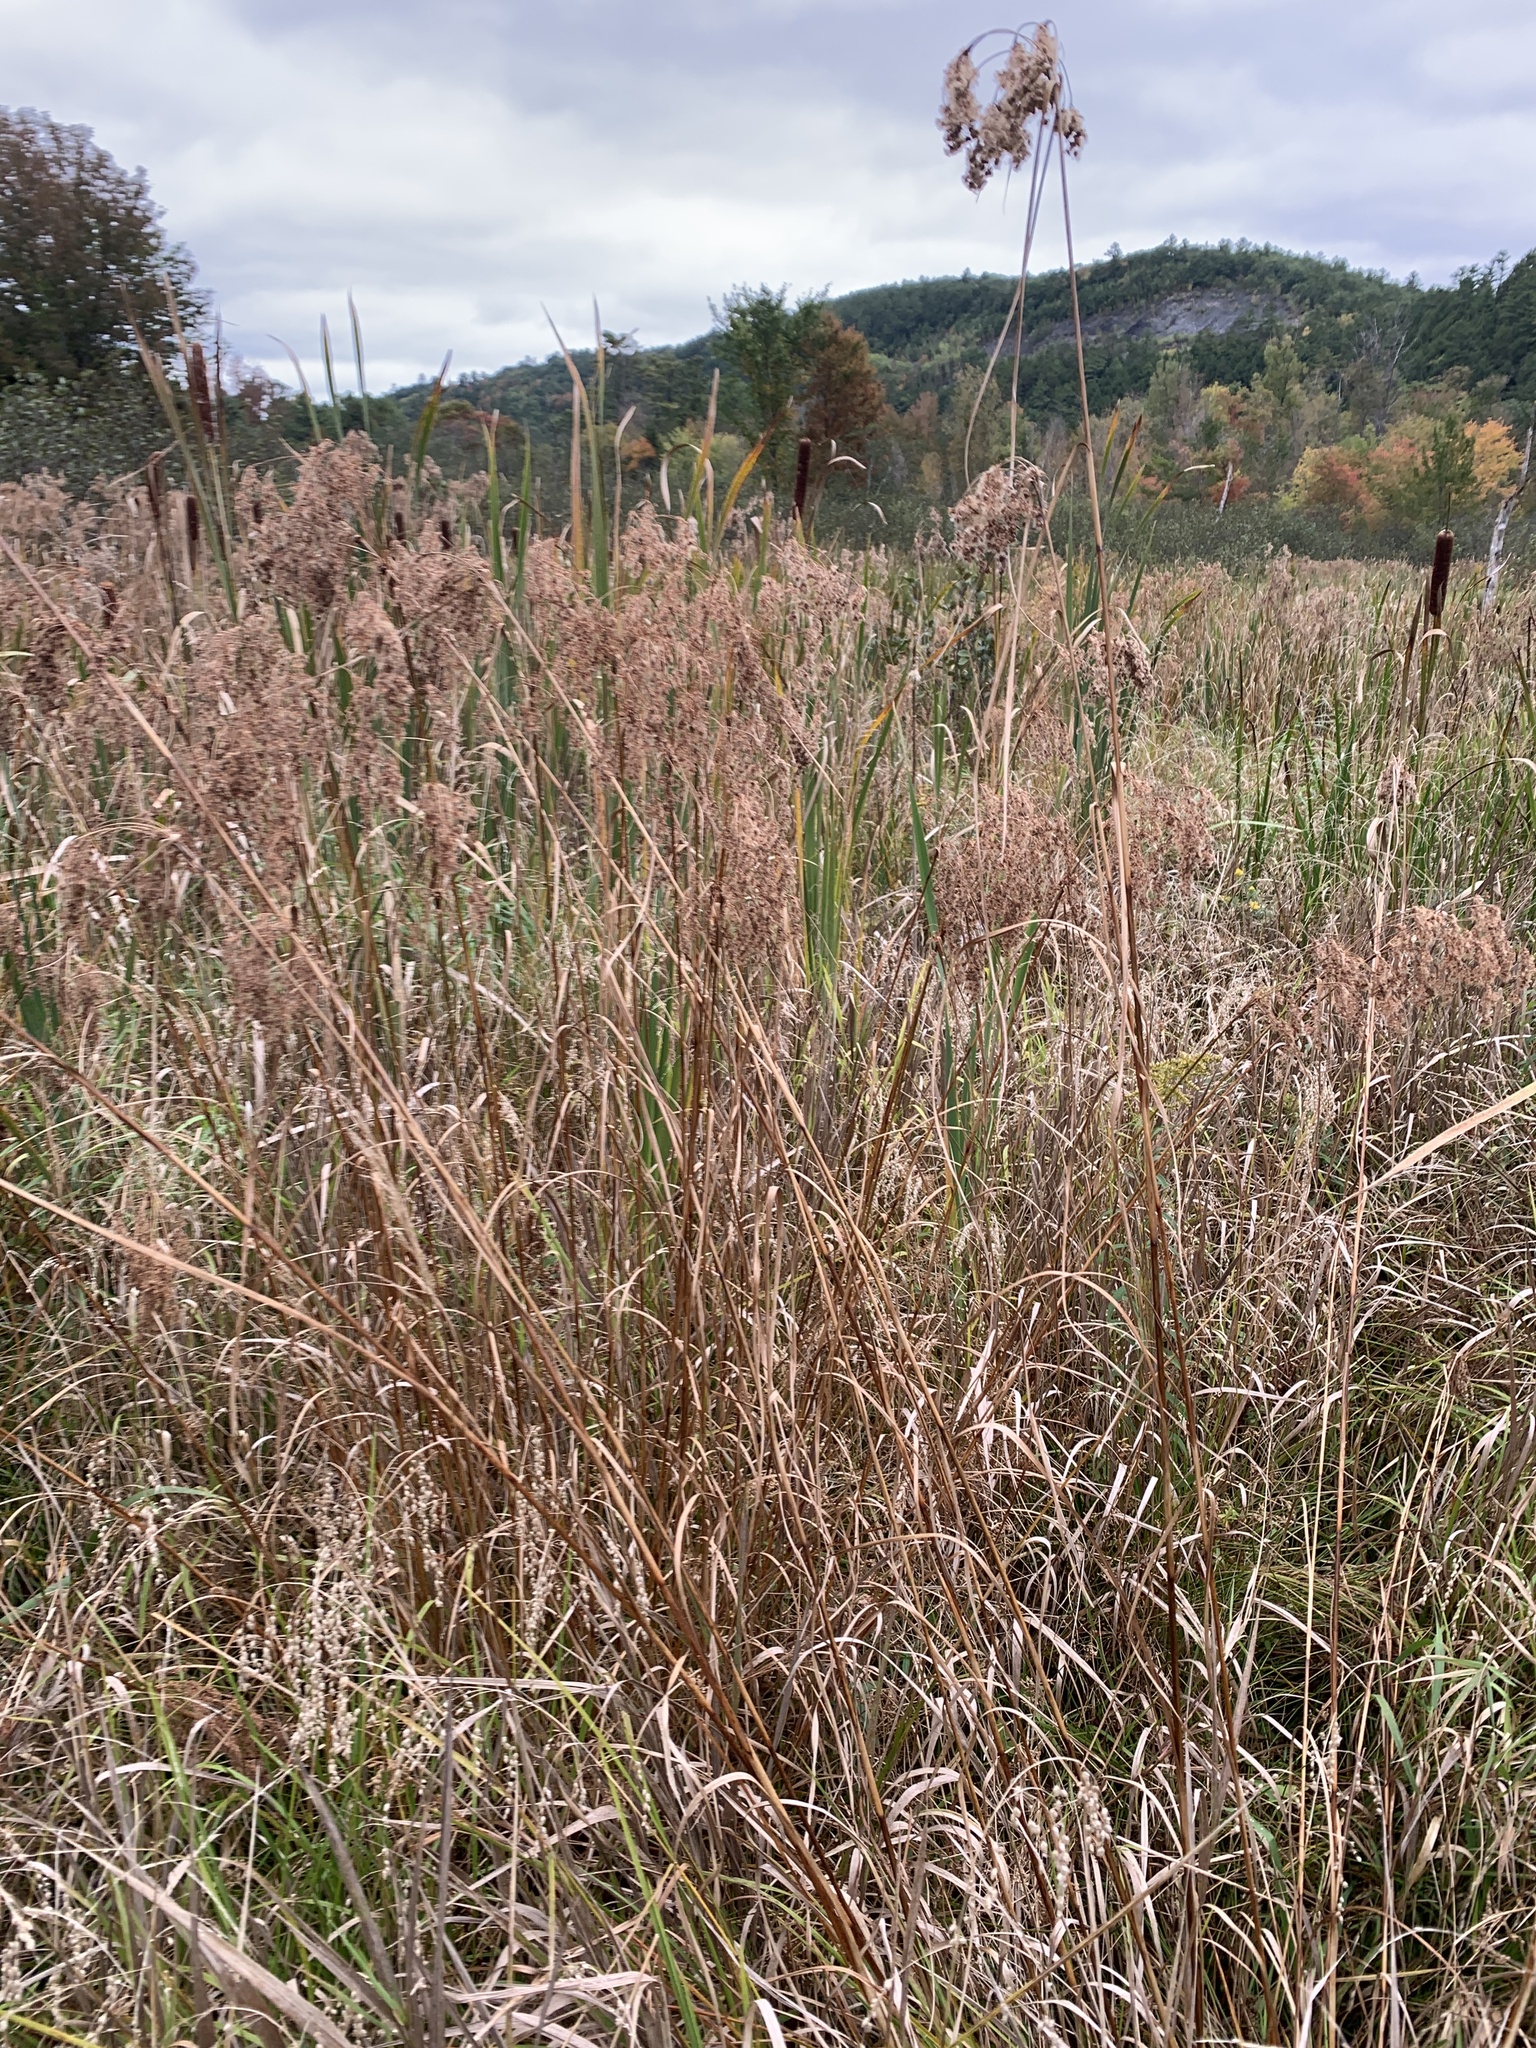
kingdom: Plantae
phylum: Tracheophyta
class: Liliopsida
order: Poales
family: Cyperaceae
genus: Scirpus
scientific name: Scirpus cyperinus
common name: Black-sheathed bulrush
